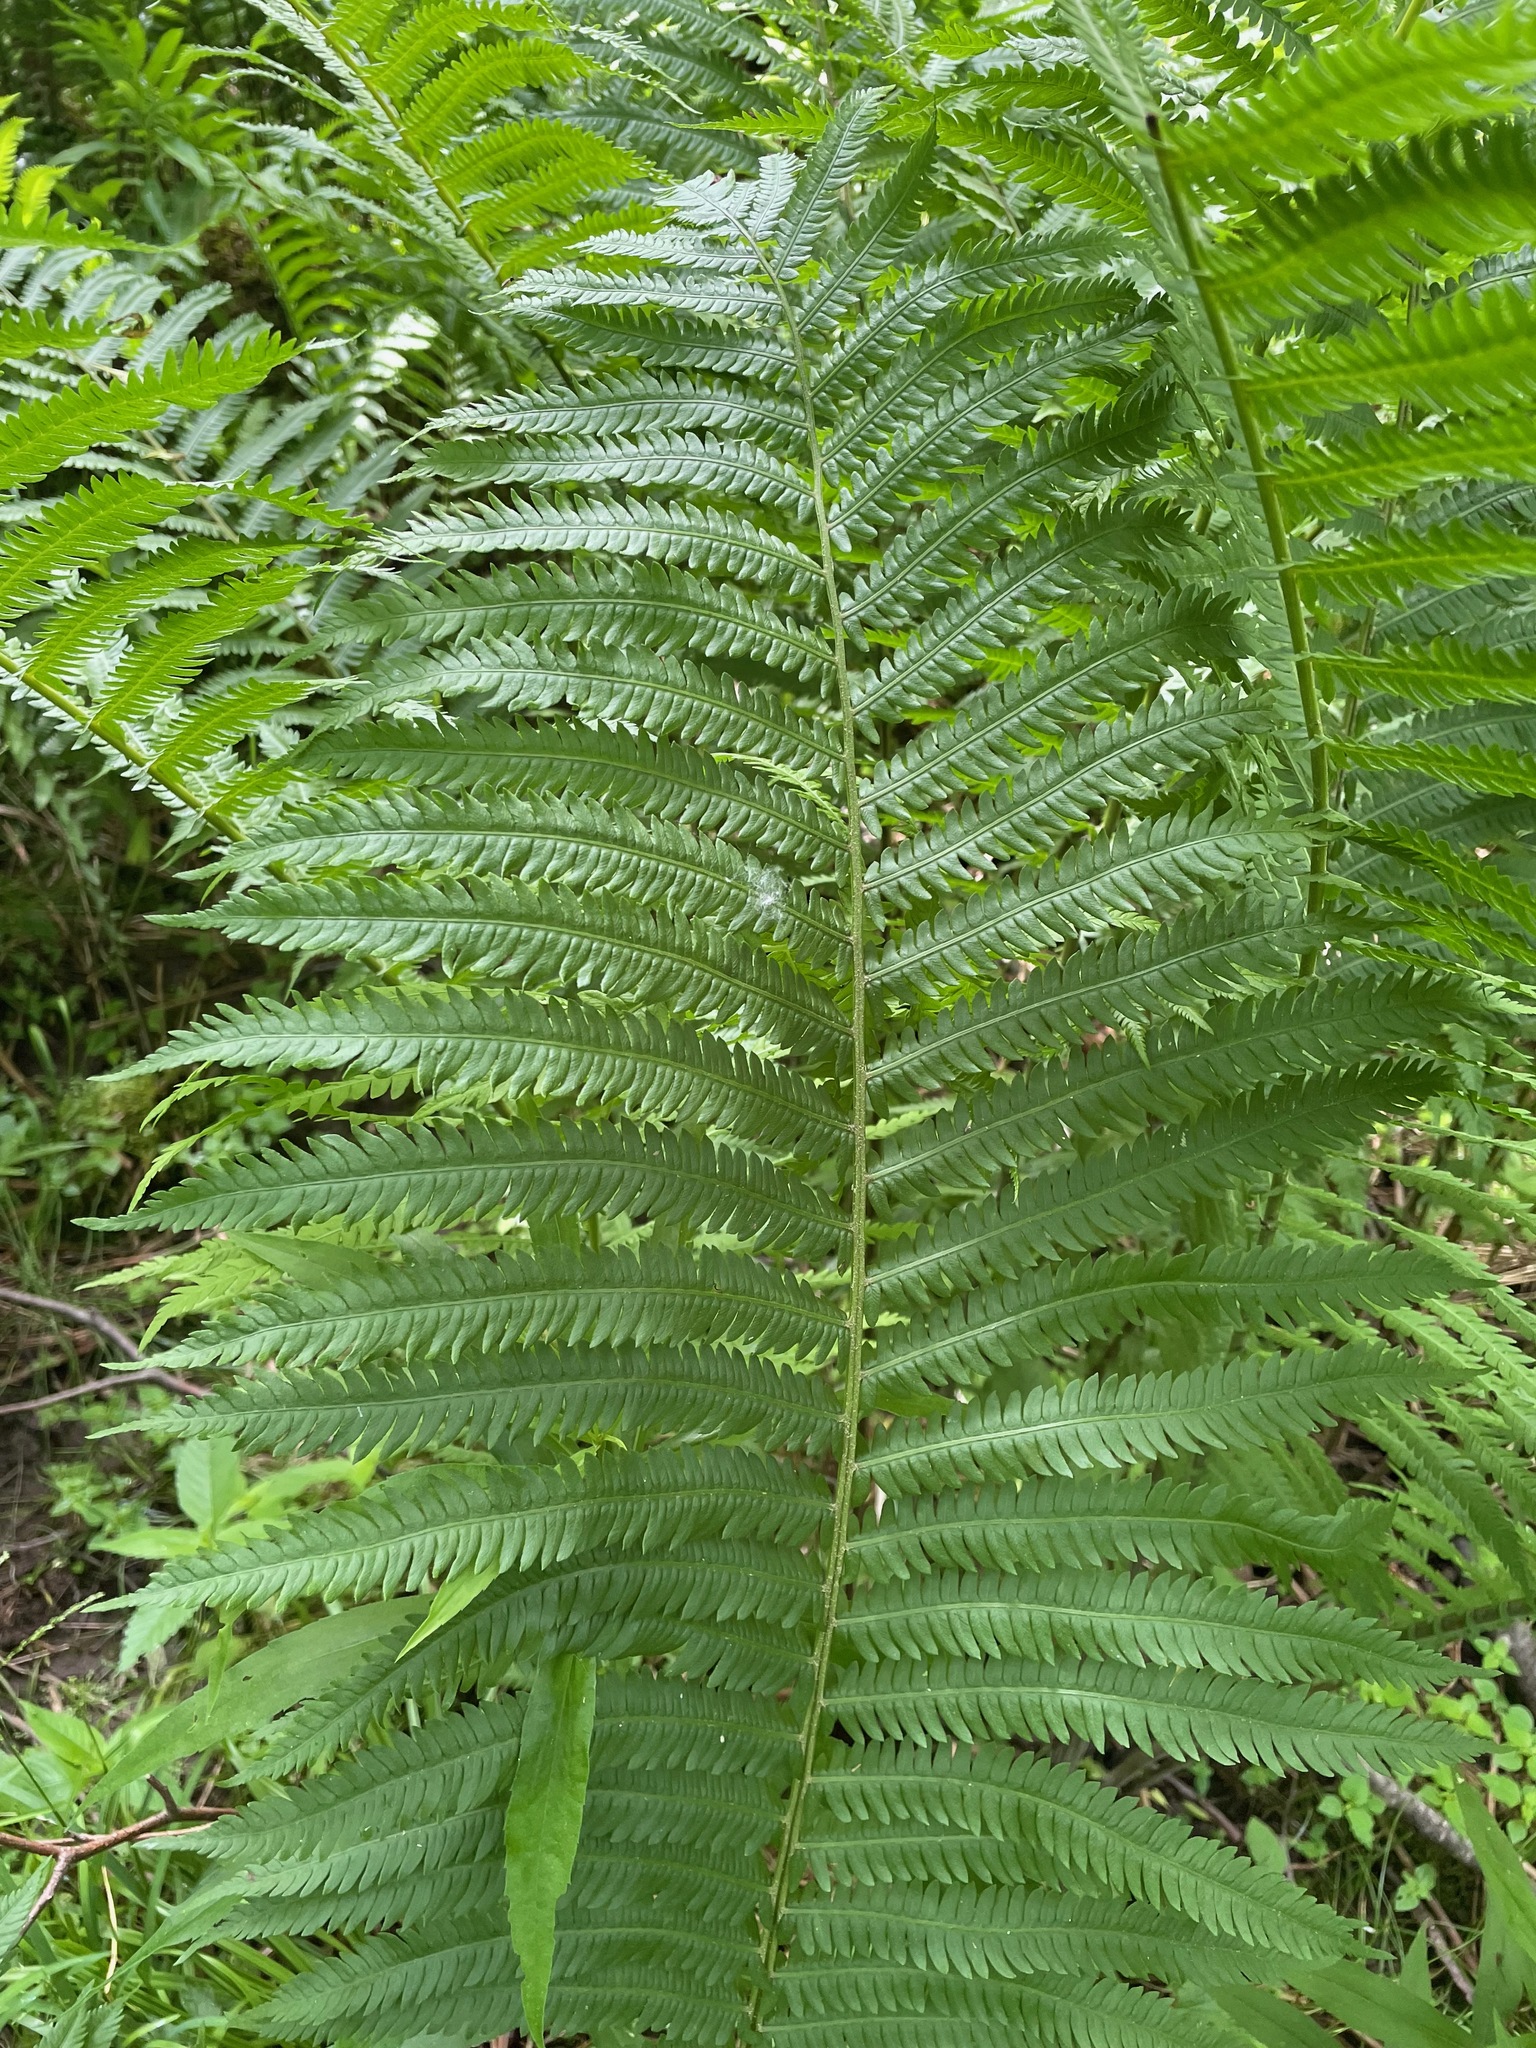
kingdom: Plantae
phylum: Tracheophyta
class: Polypodiopsida
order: Polypodiales
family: Onocleaceae
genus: Matteuccia
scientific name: Matteuccia struthiopteris
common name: Ostrich fern
